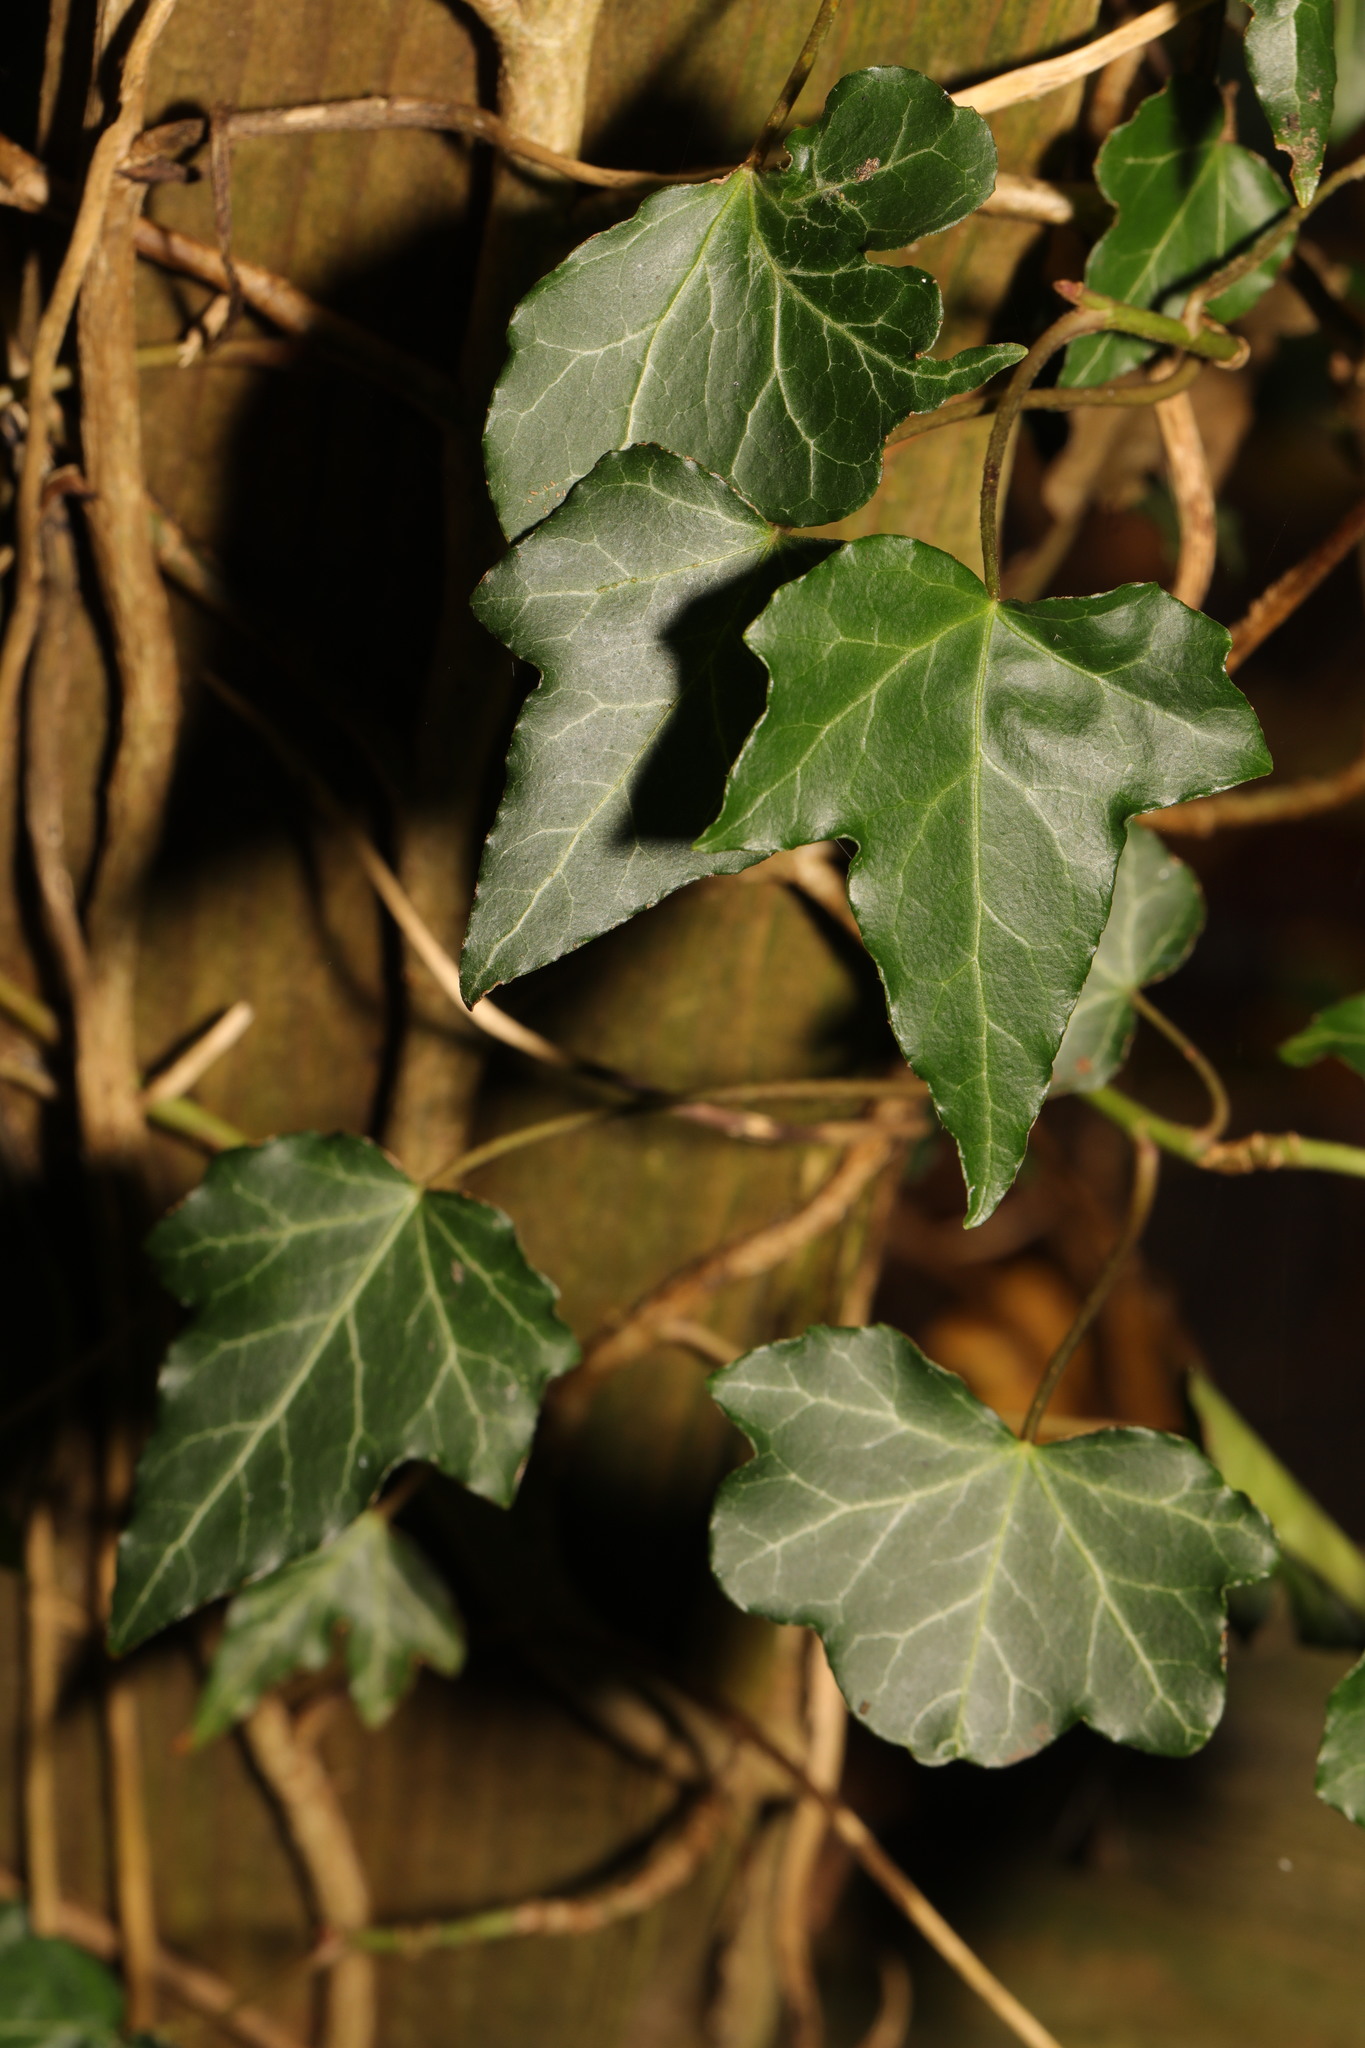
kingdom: Plantae
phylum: Tracheophyta
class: Magnoliopsida
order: Apiales
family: Araliaceae
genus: Hedera
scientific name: Hedera helix
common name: Ivy
